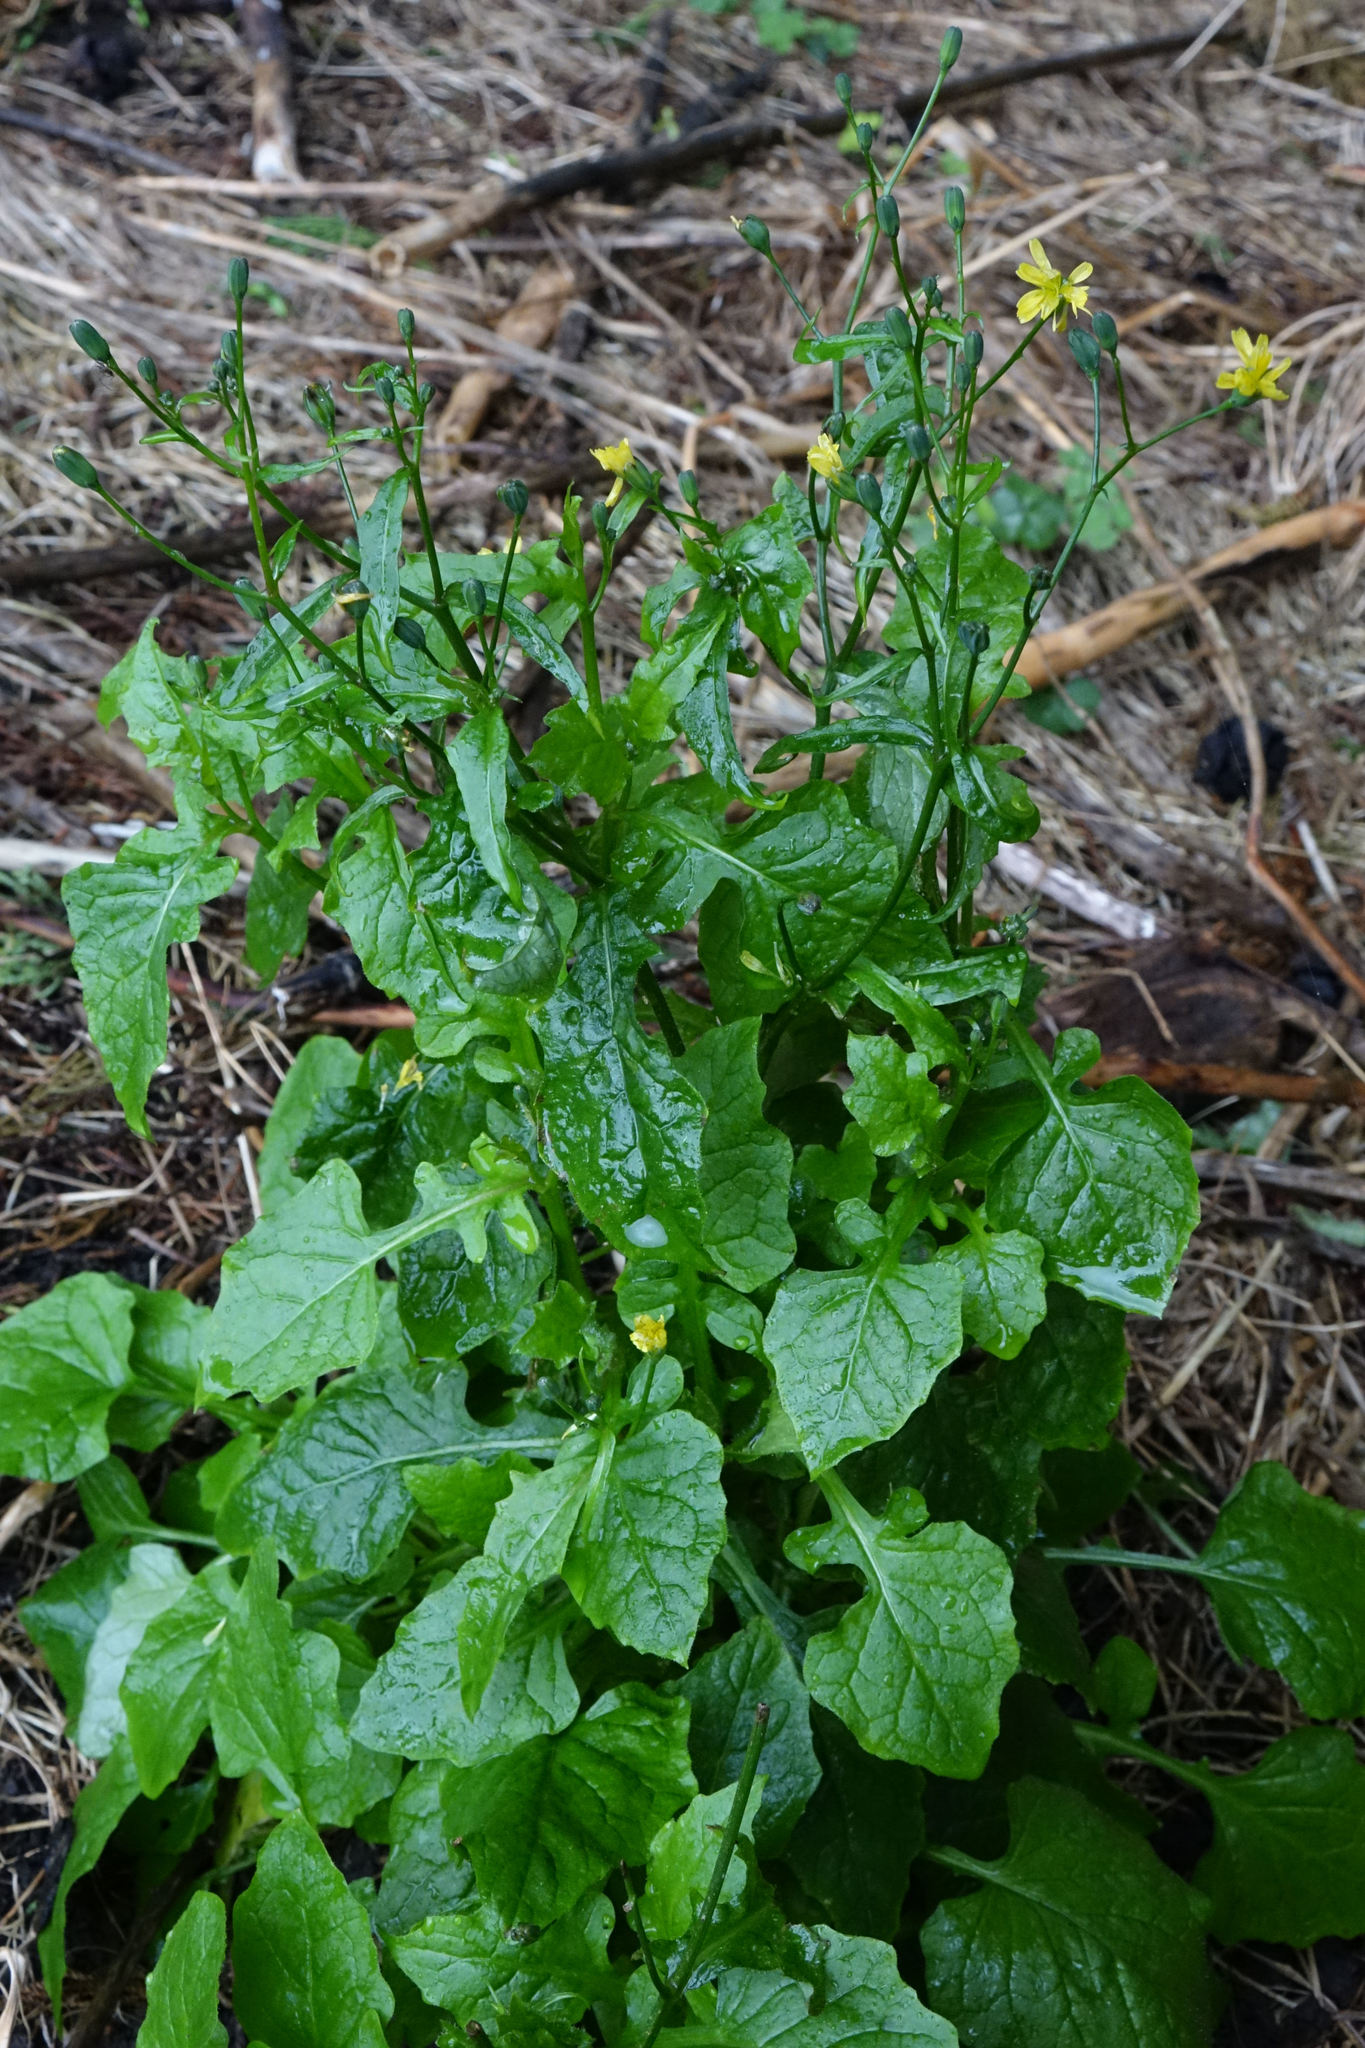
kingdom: Plantae
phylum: Tracheophyta
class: Magnoliopsida
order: Asterales
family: Asteraceae
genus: Lapsana
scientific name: Lapsana communis
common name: Nipplewort
